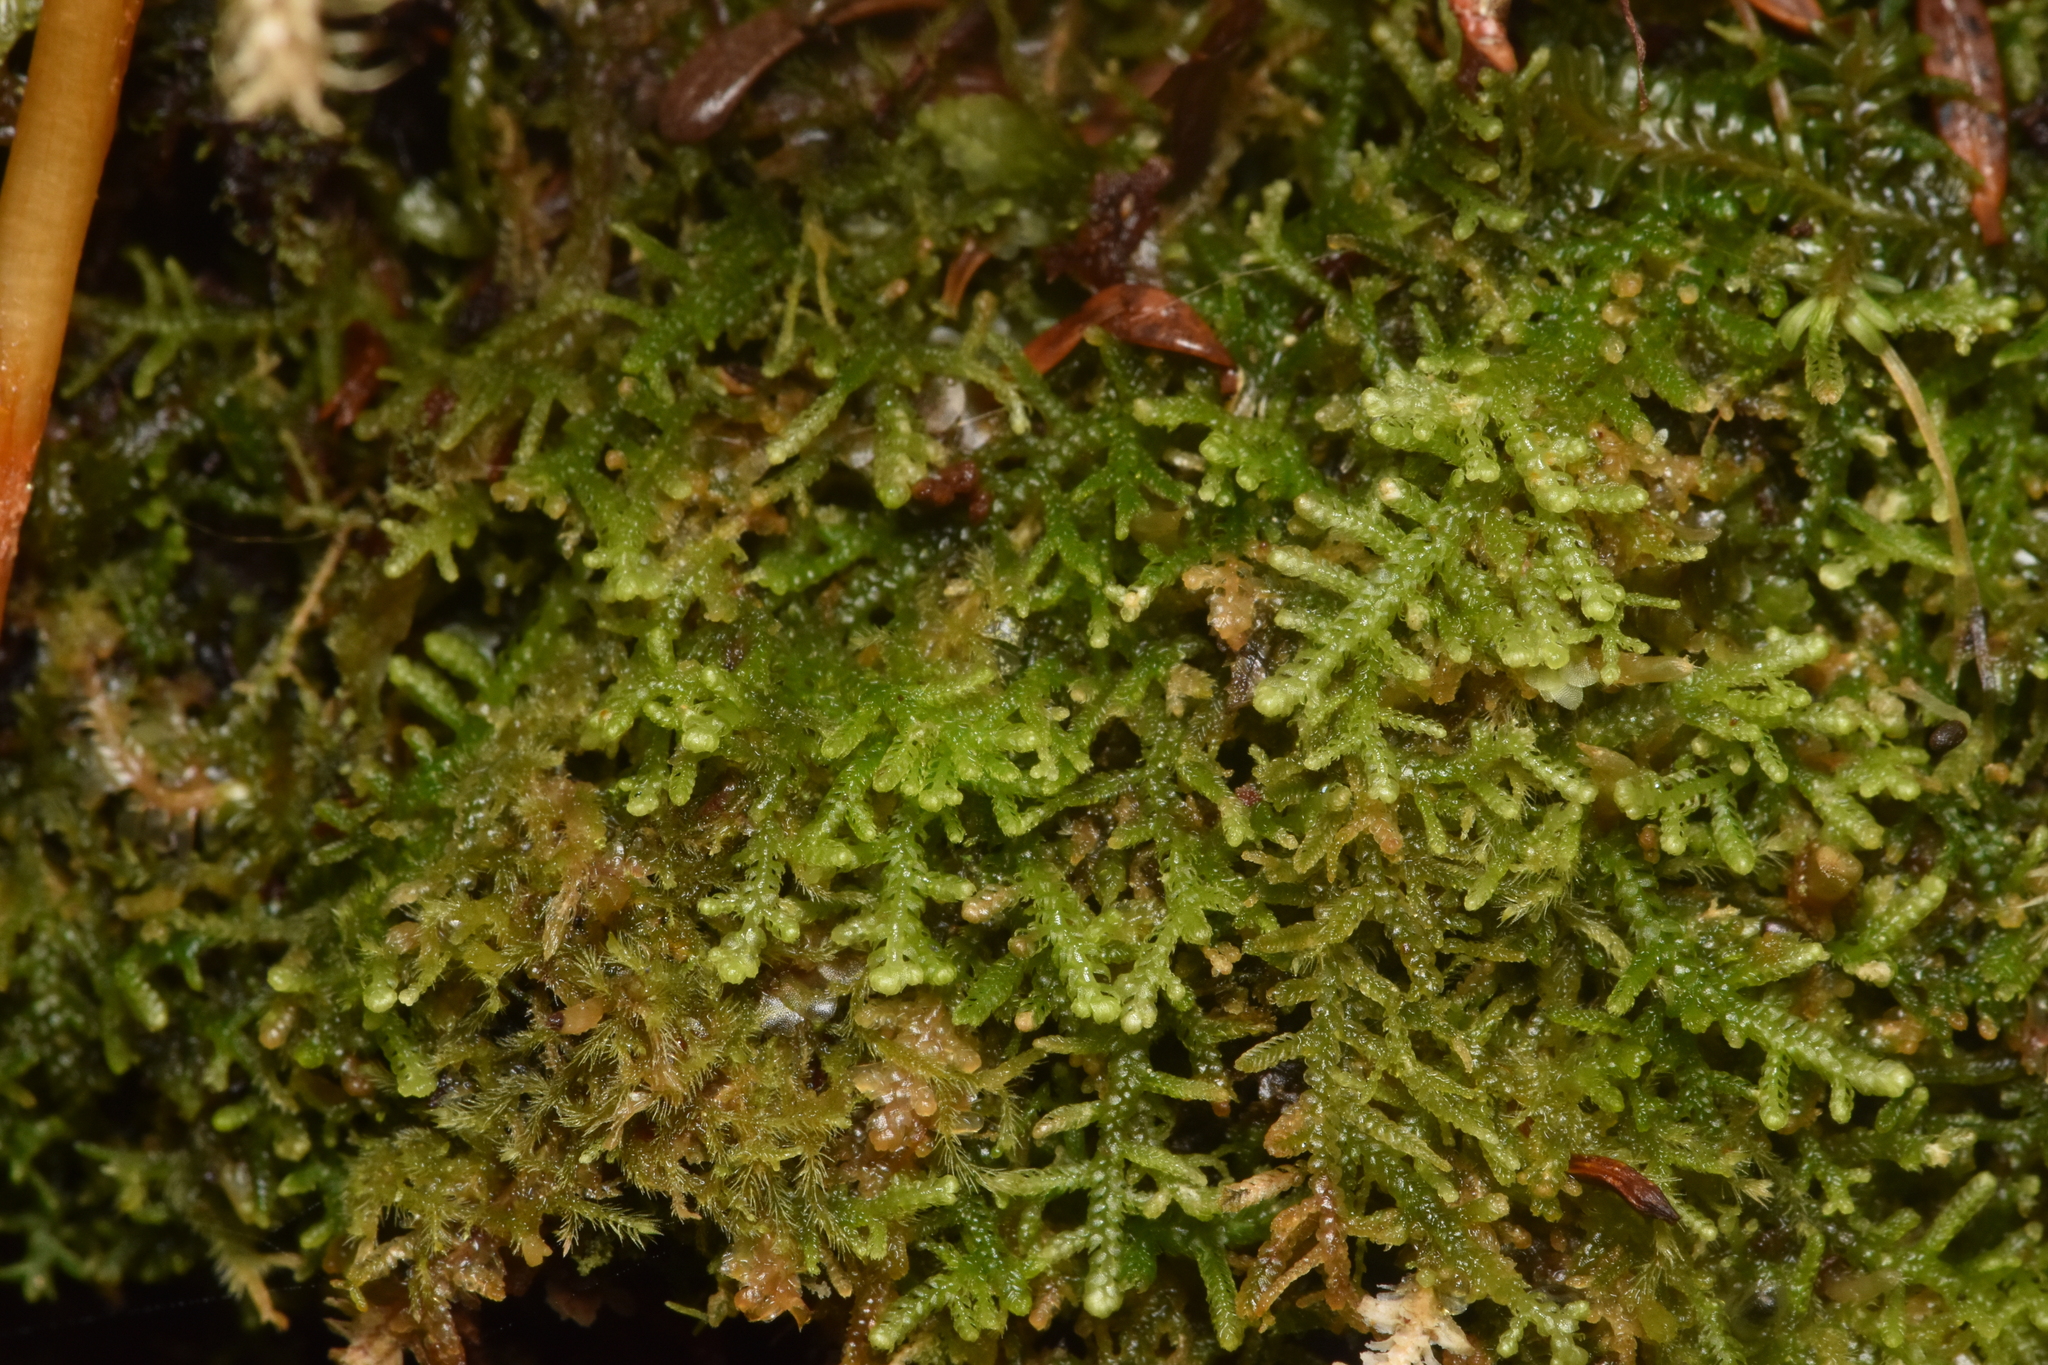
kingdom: Plantae
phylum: Marchantiophyta
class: Jungermanniopsida
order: Jungermanniales
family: Lepidoziaceae
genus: Lepidozia
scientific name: Lepidozia reptans
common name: Creeping fingerwort
